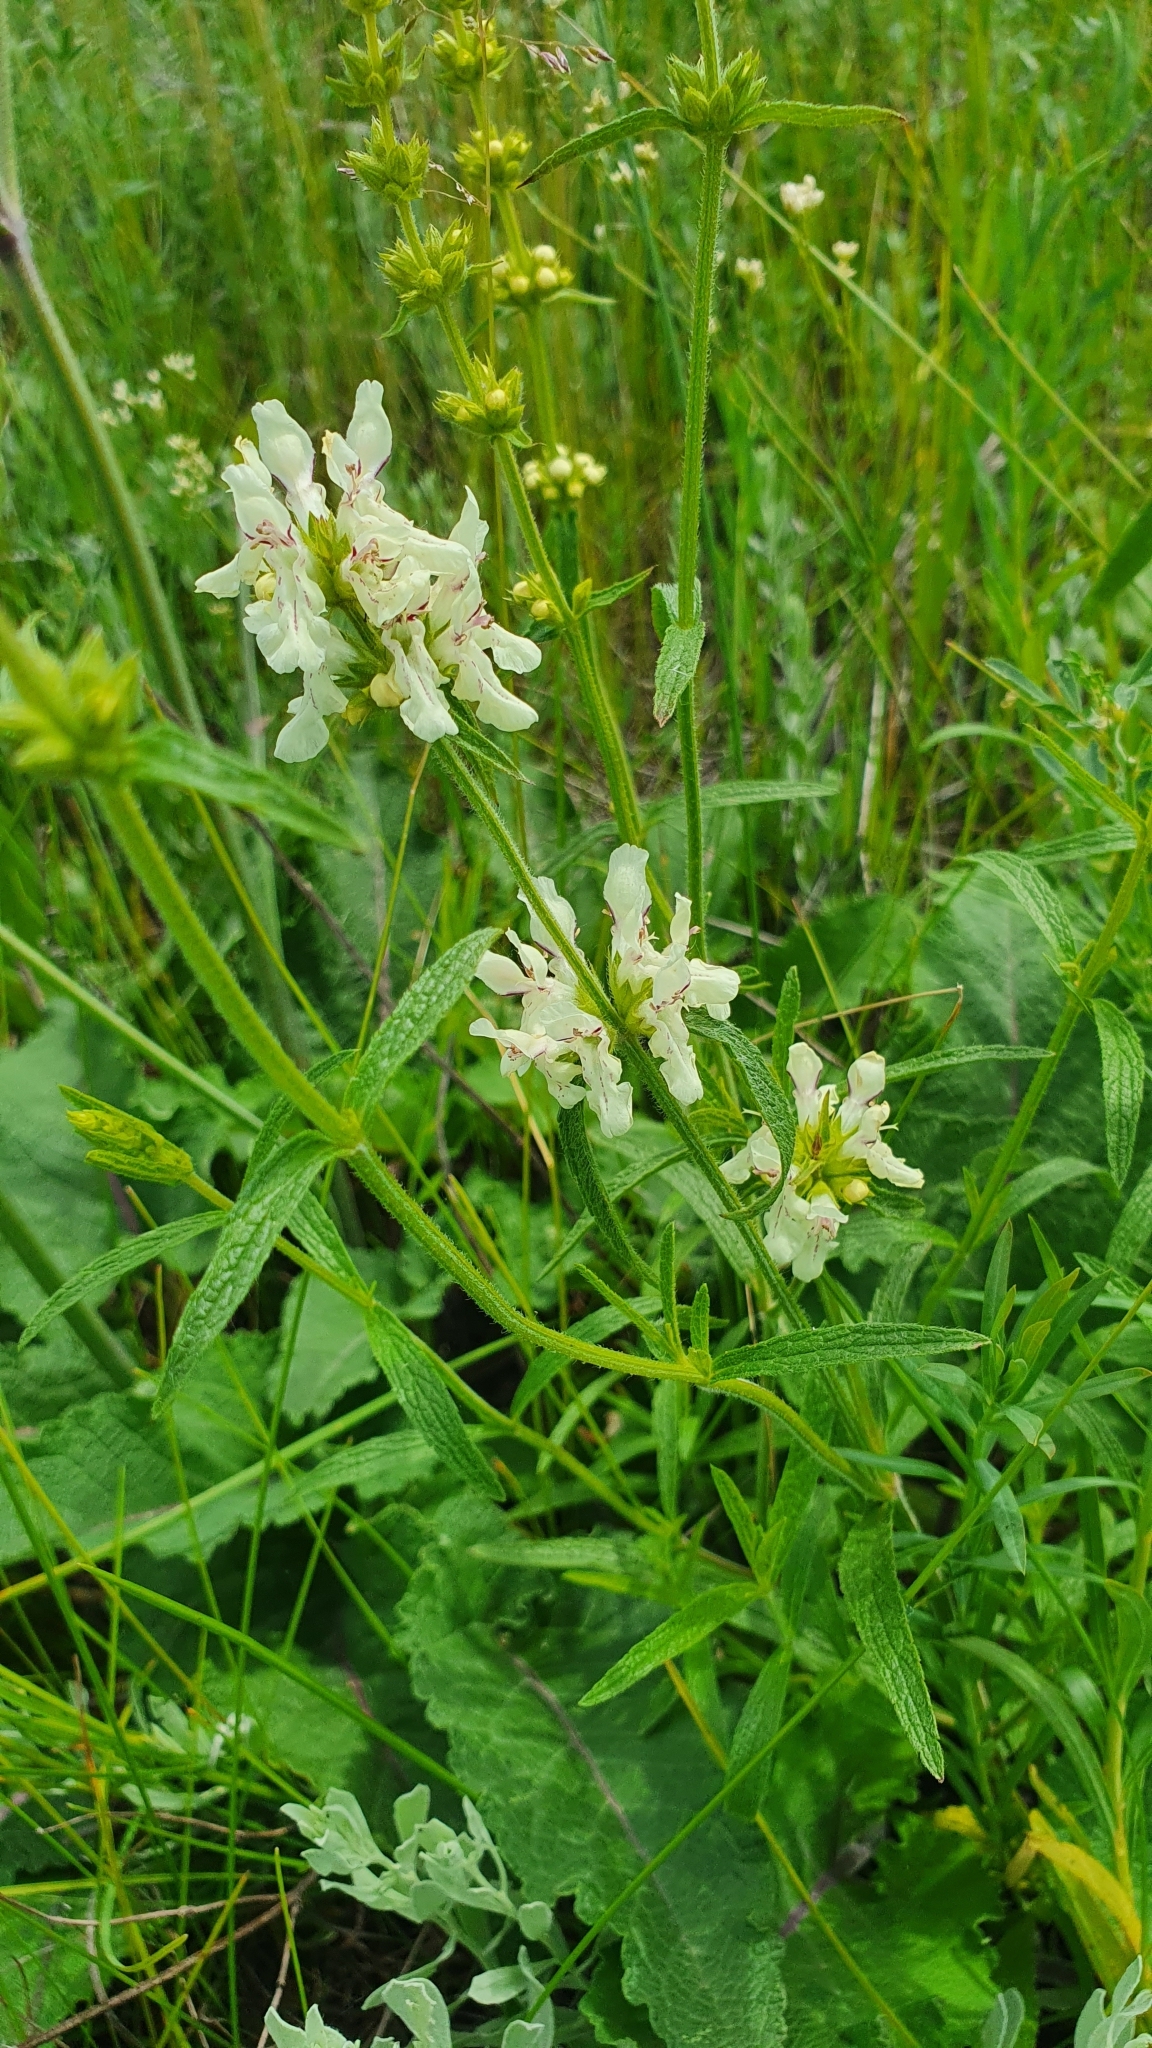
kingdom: Plantae
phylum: Tracheophyta
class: Magnoliopsida
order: Lamiales
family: Lamiaceae
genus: Stachys
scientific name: Stachys recta
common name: Perennial yellow-woundwort
